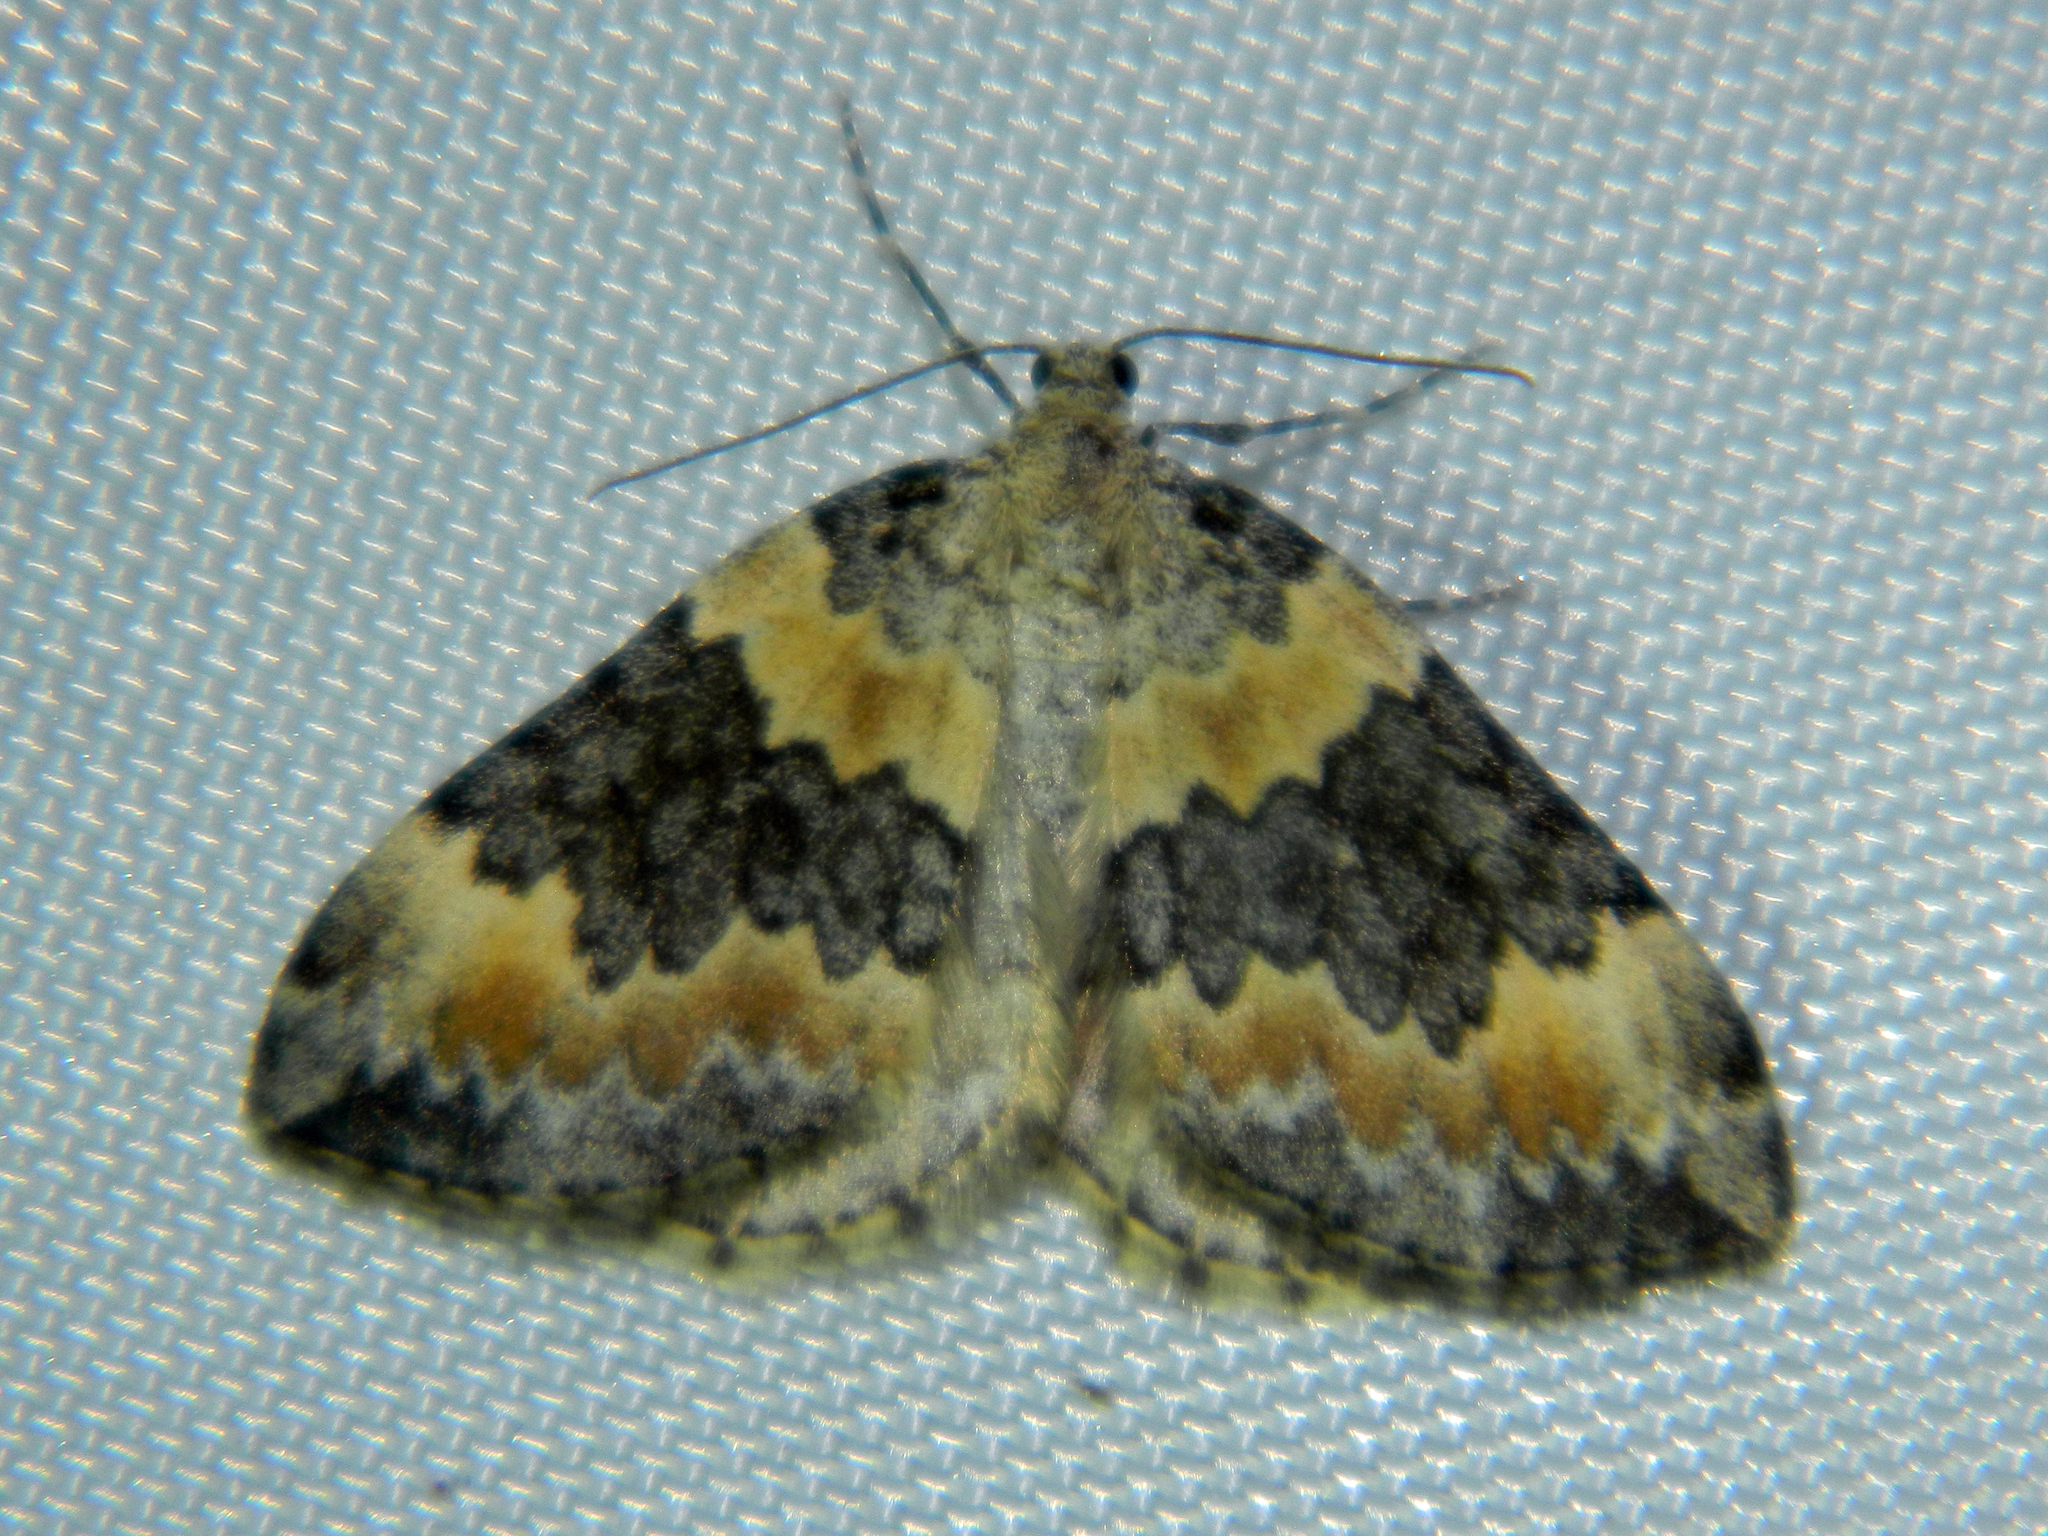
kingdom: Animalia
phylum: Arthropoda
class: Insecta
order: Lepidoptera
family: Geometridae
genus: Dysstroma
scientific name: Dysstroma brunneata
